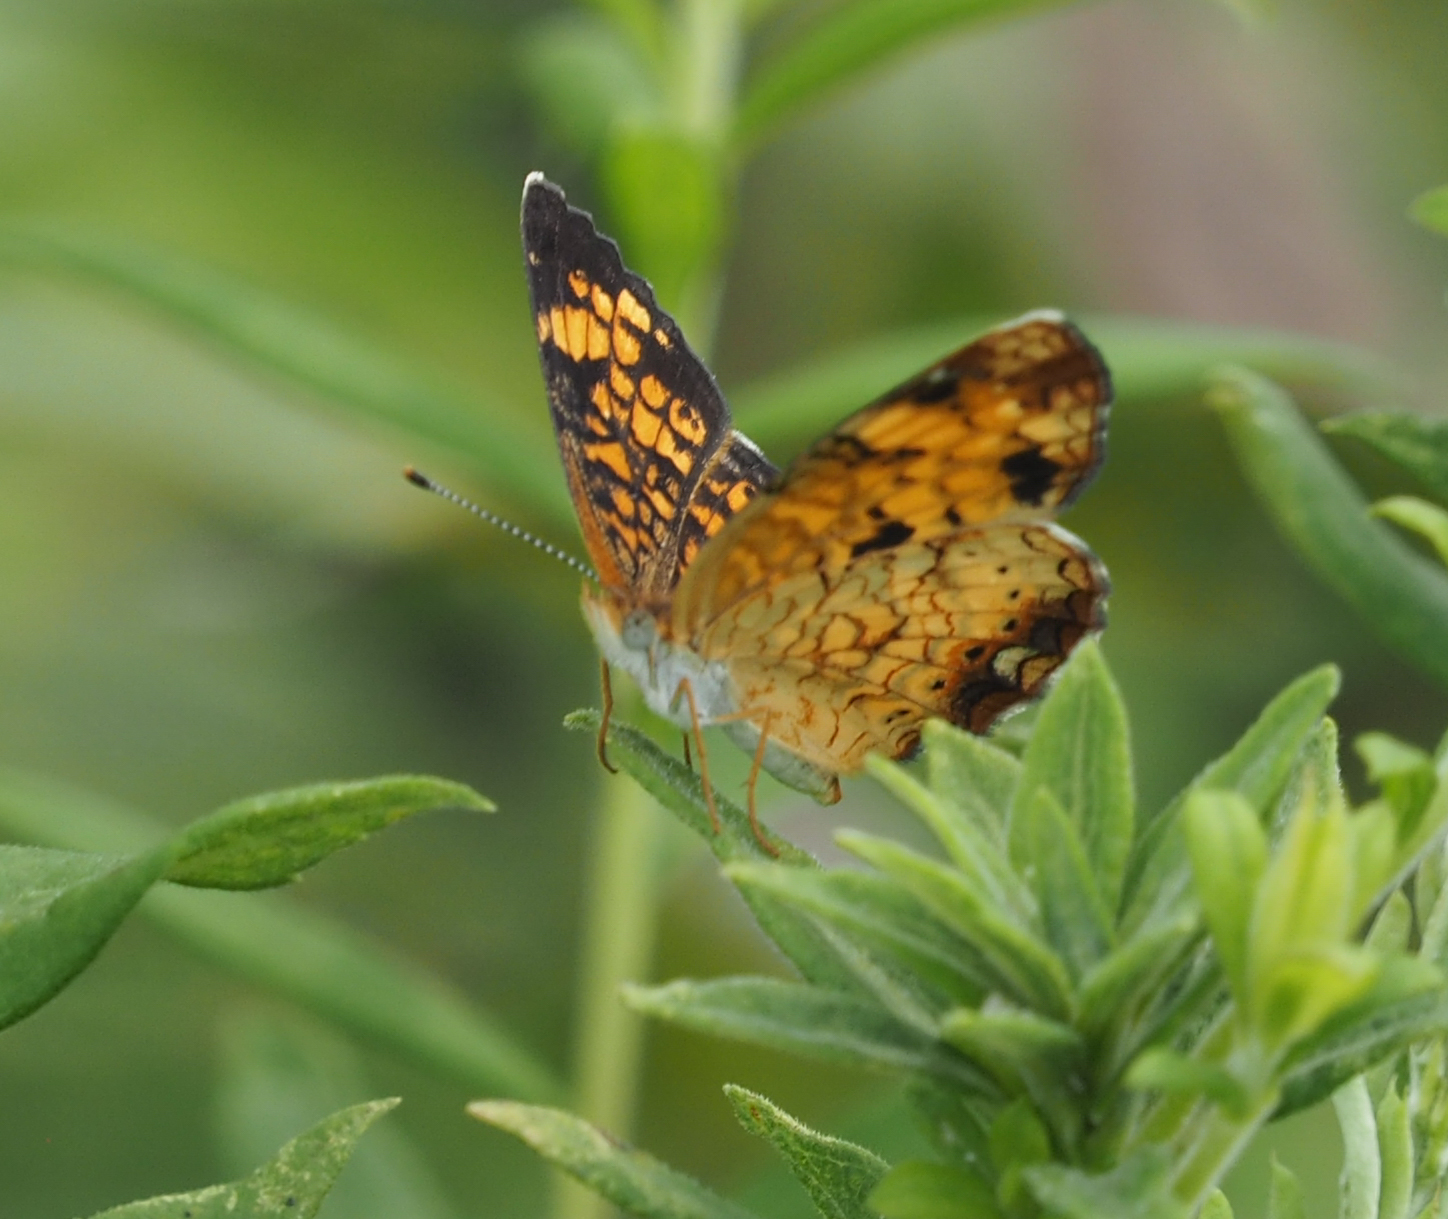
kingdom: Animalia
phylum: Arthropoda
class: Insecta
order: Lepidoptera
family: Nymphalidae
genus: Phyciodes
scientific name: Phyciodes tharos
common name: Pearl crescent
